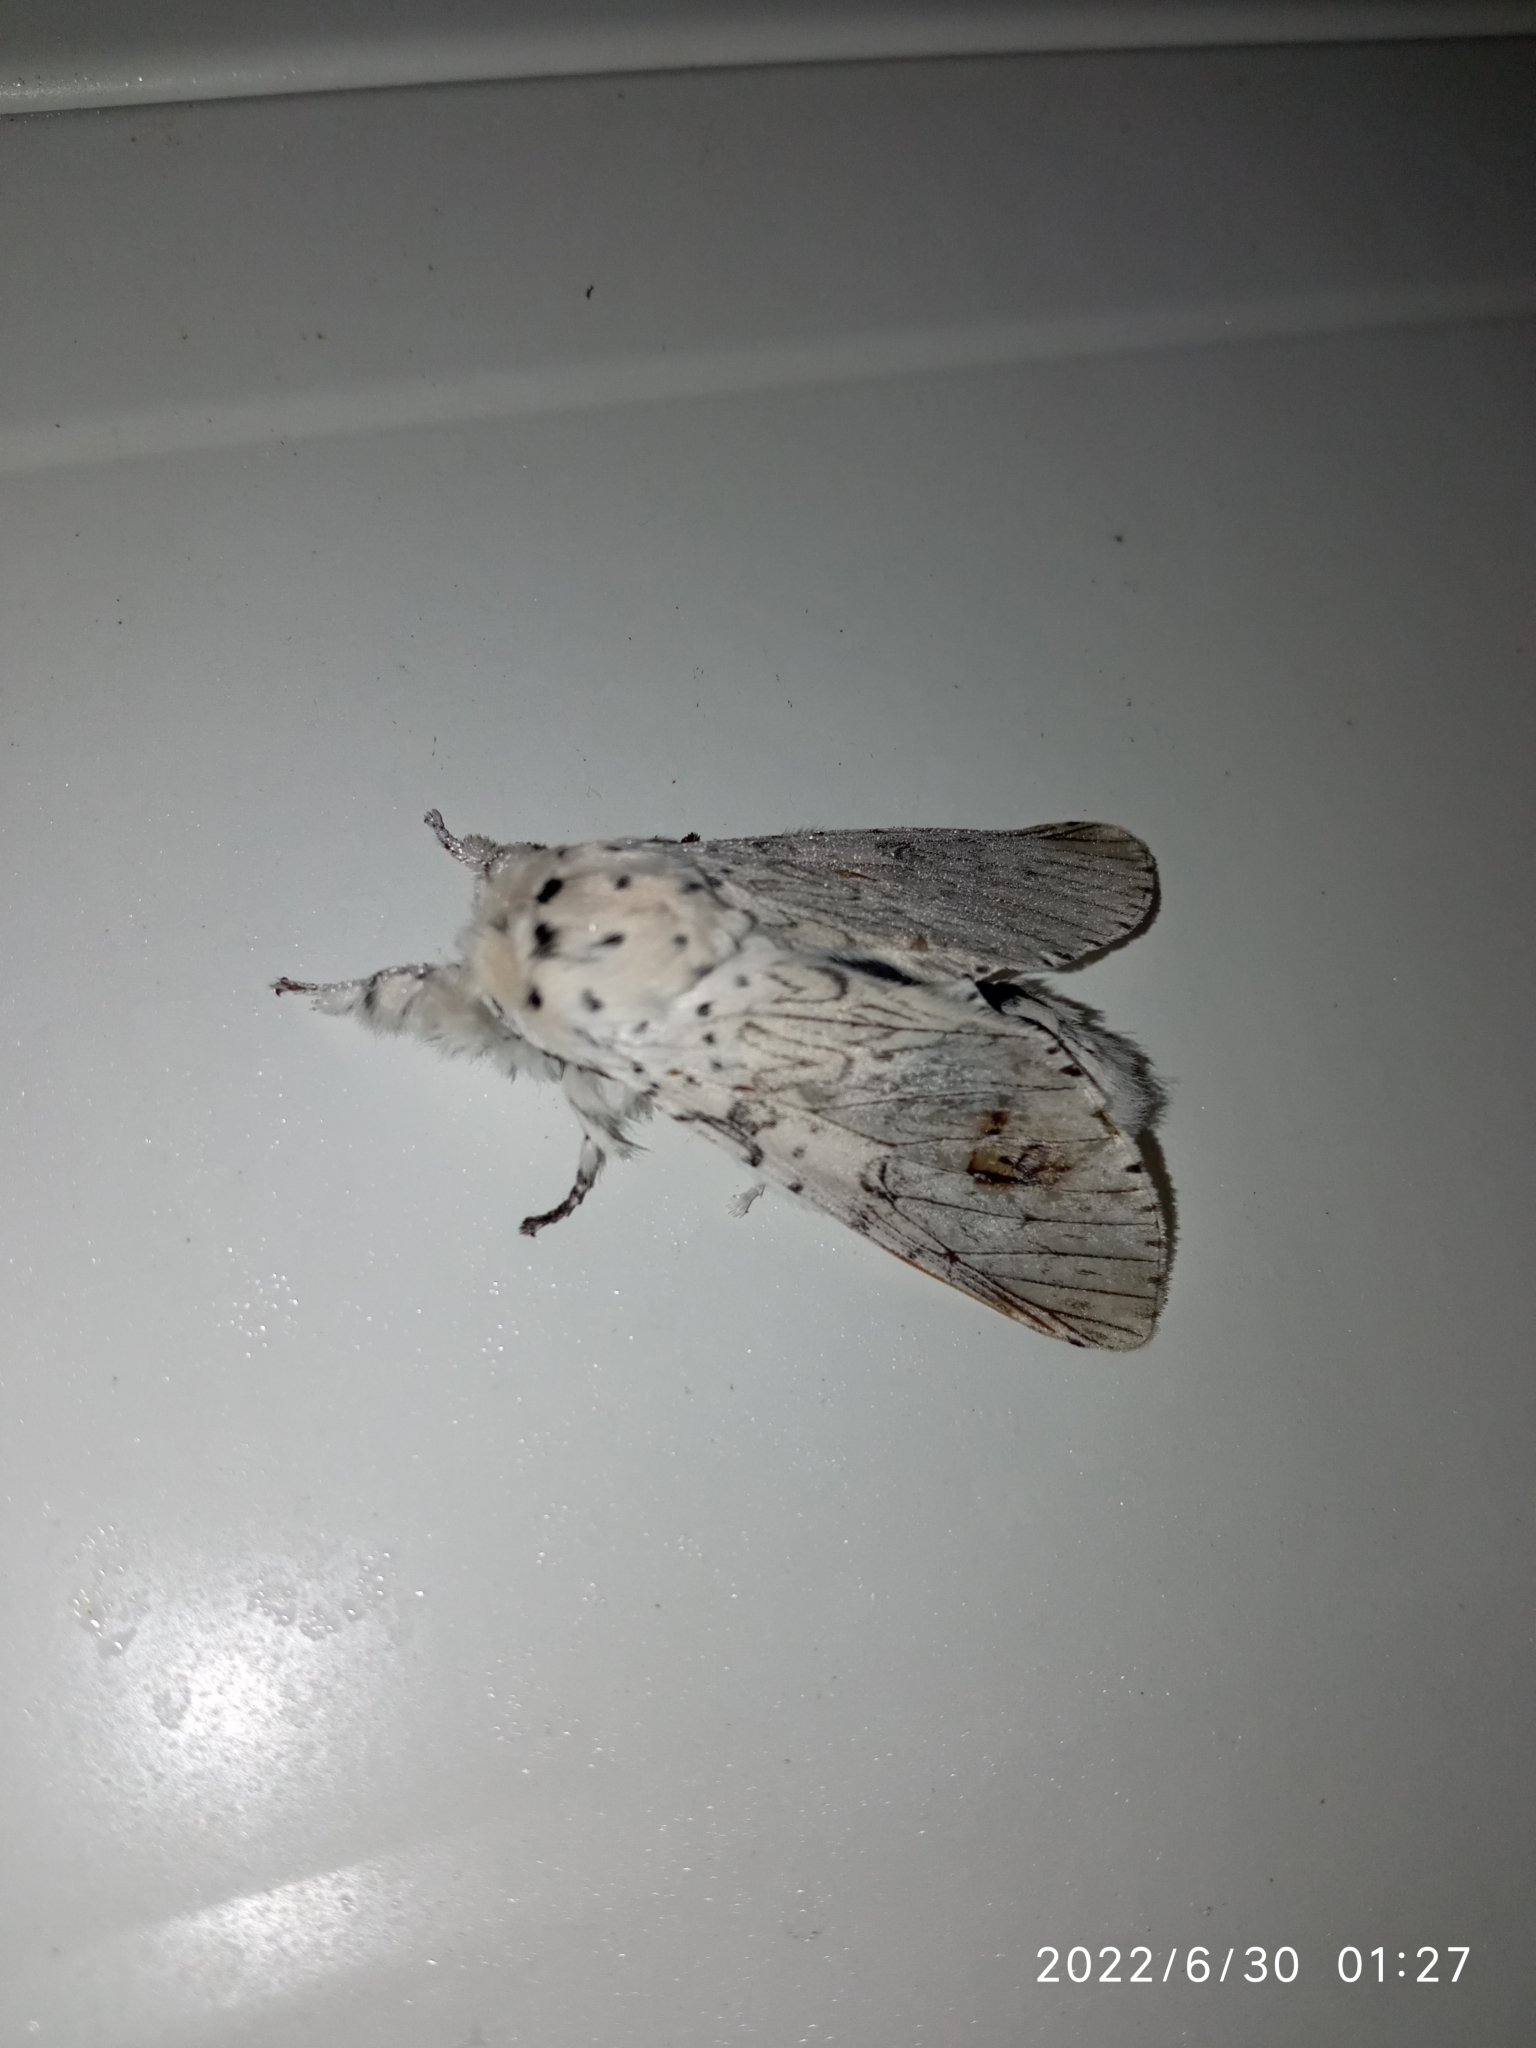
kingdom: Animalia
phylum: Arthropoda
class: Insecta
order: Lepidoptera
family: Notodontidae
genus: Cerura
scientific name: Cerura erminea
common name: Lesser puss moth
